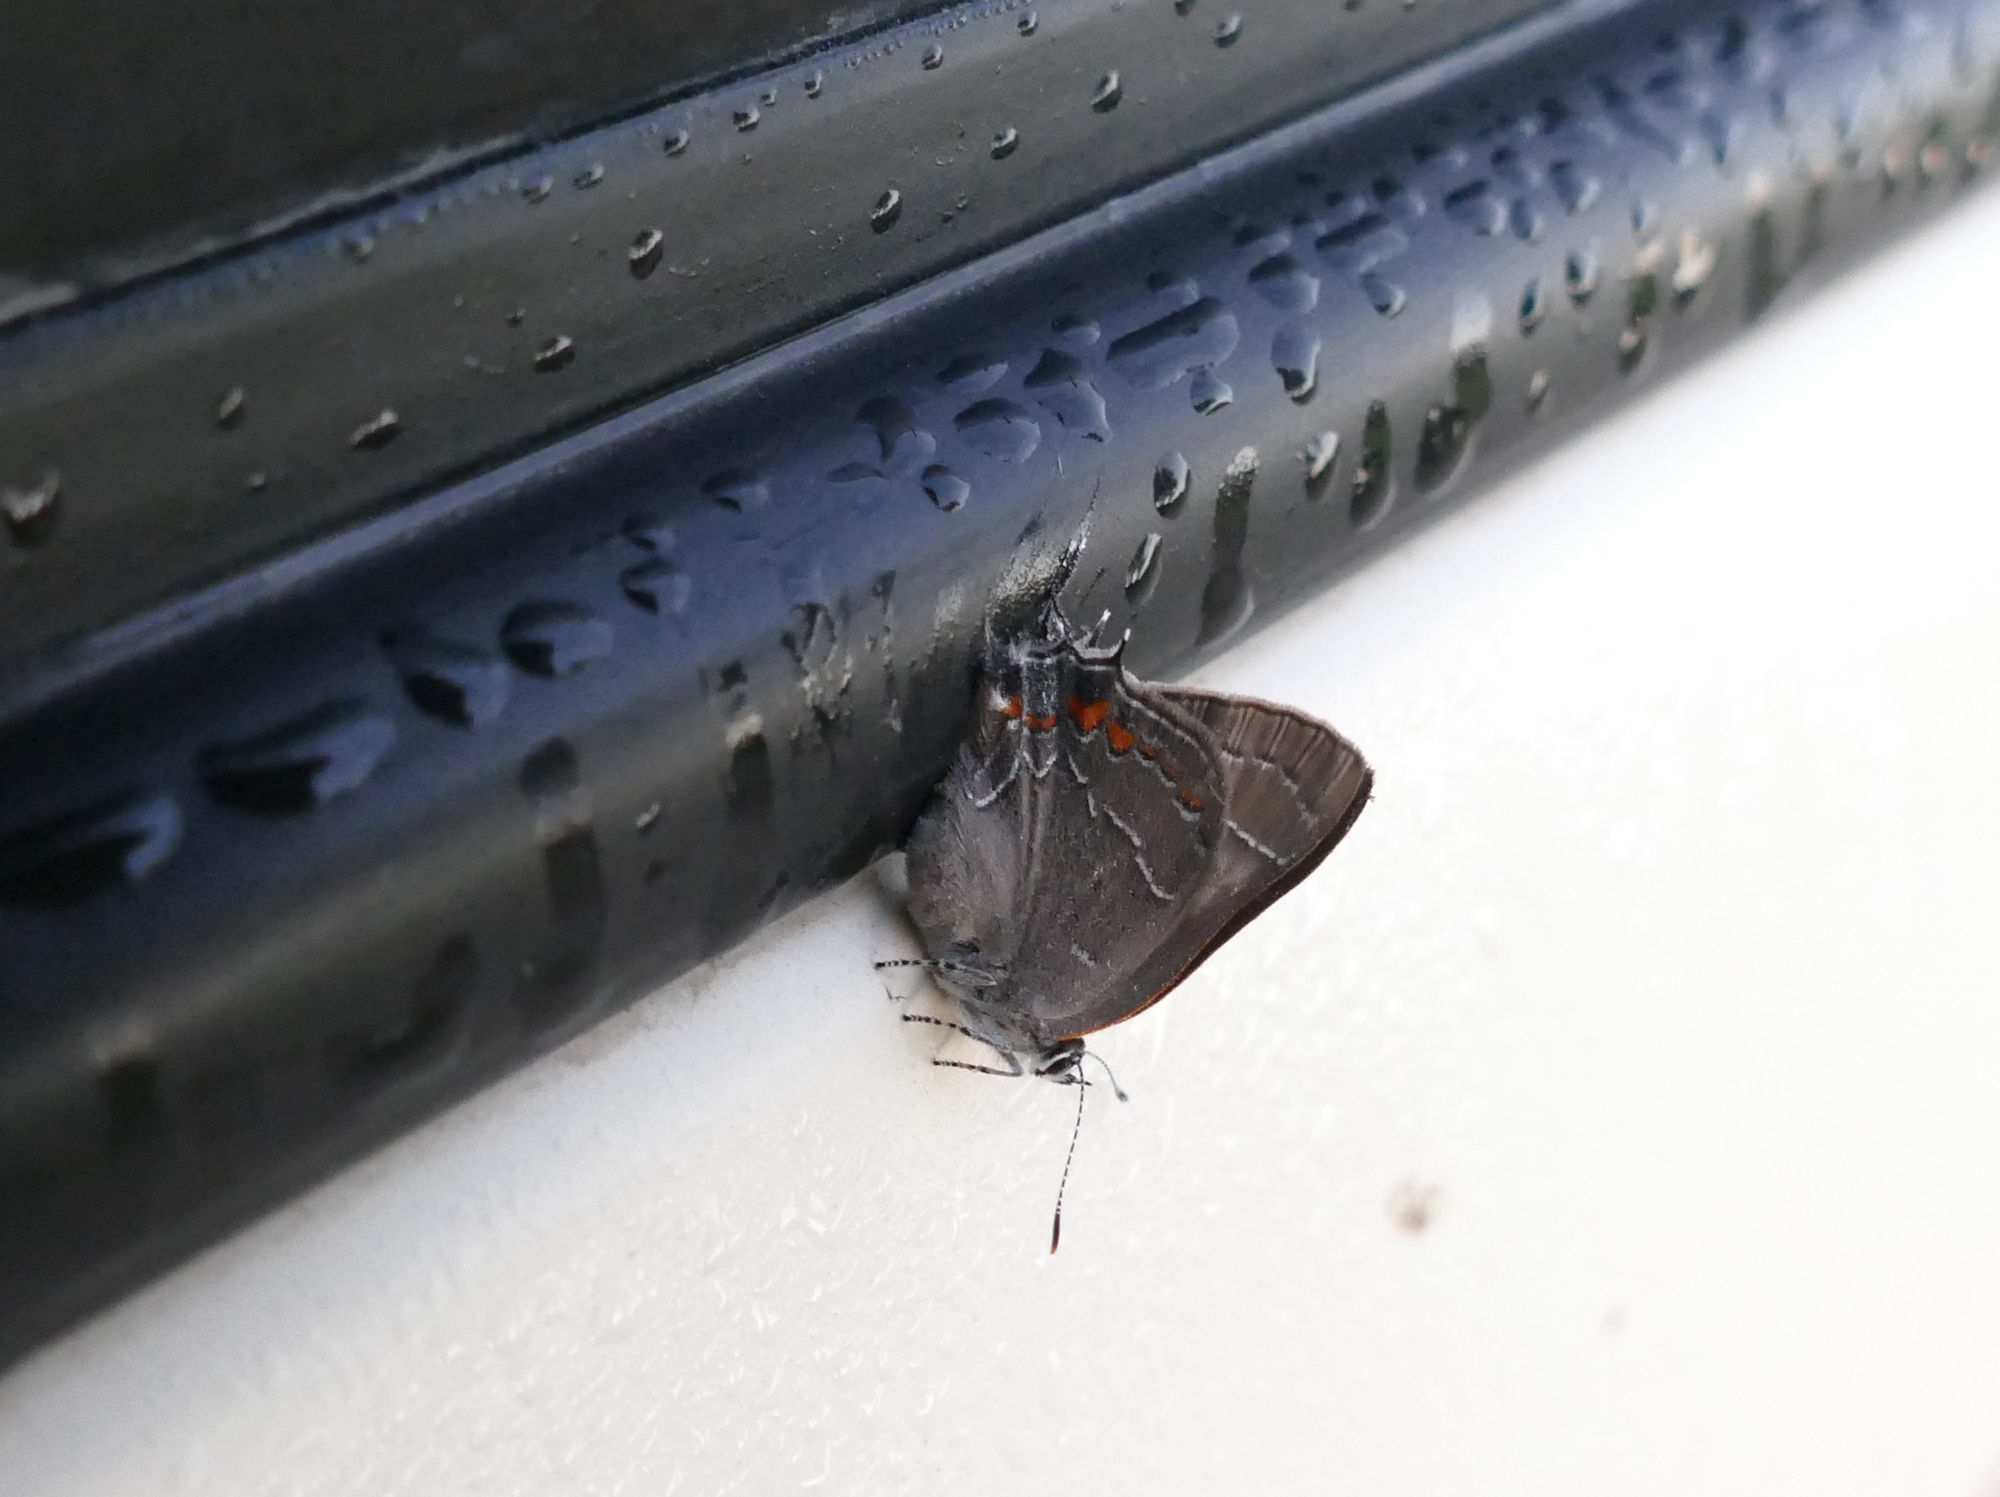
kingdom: Animalia
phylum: Arthropoda
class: Insecta
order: Lepidoptera
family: Lycaenidae
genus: Fixsenia
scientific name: Fixsenia ontario
